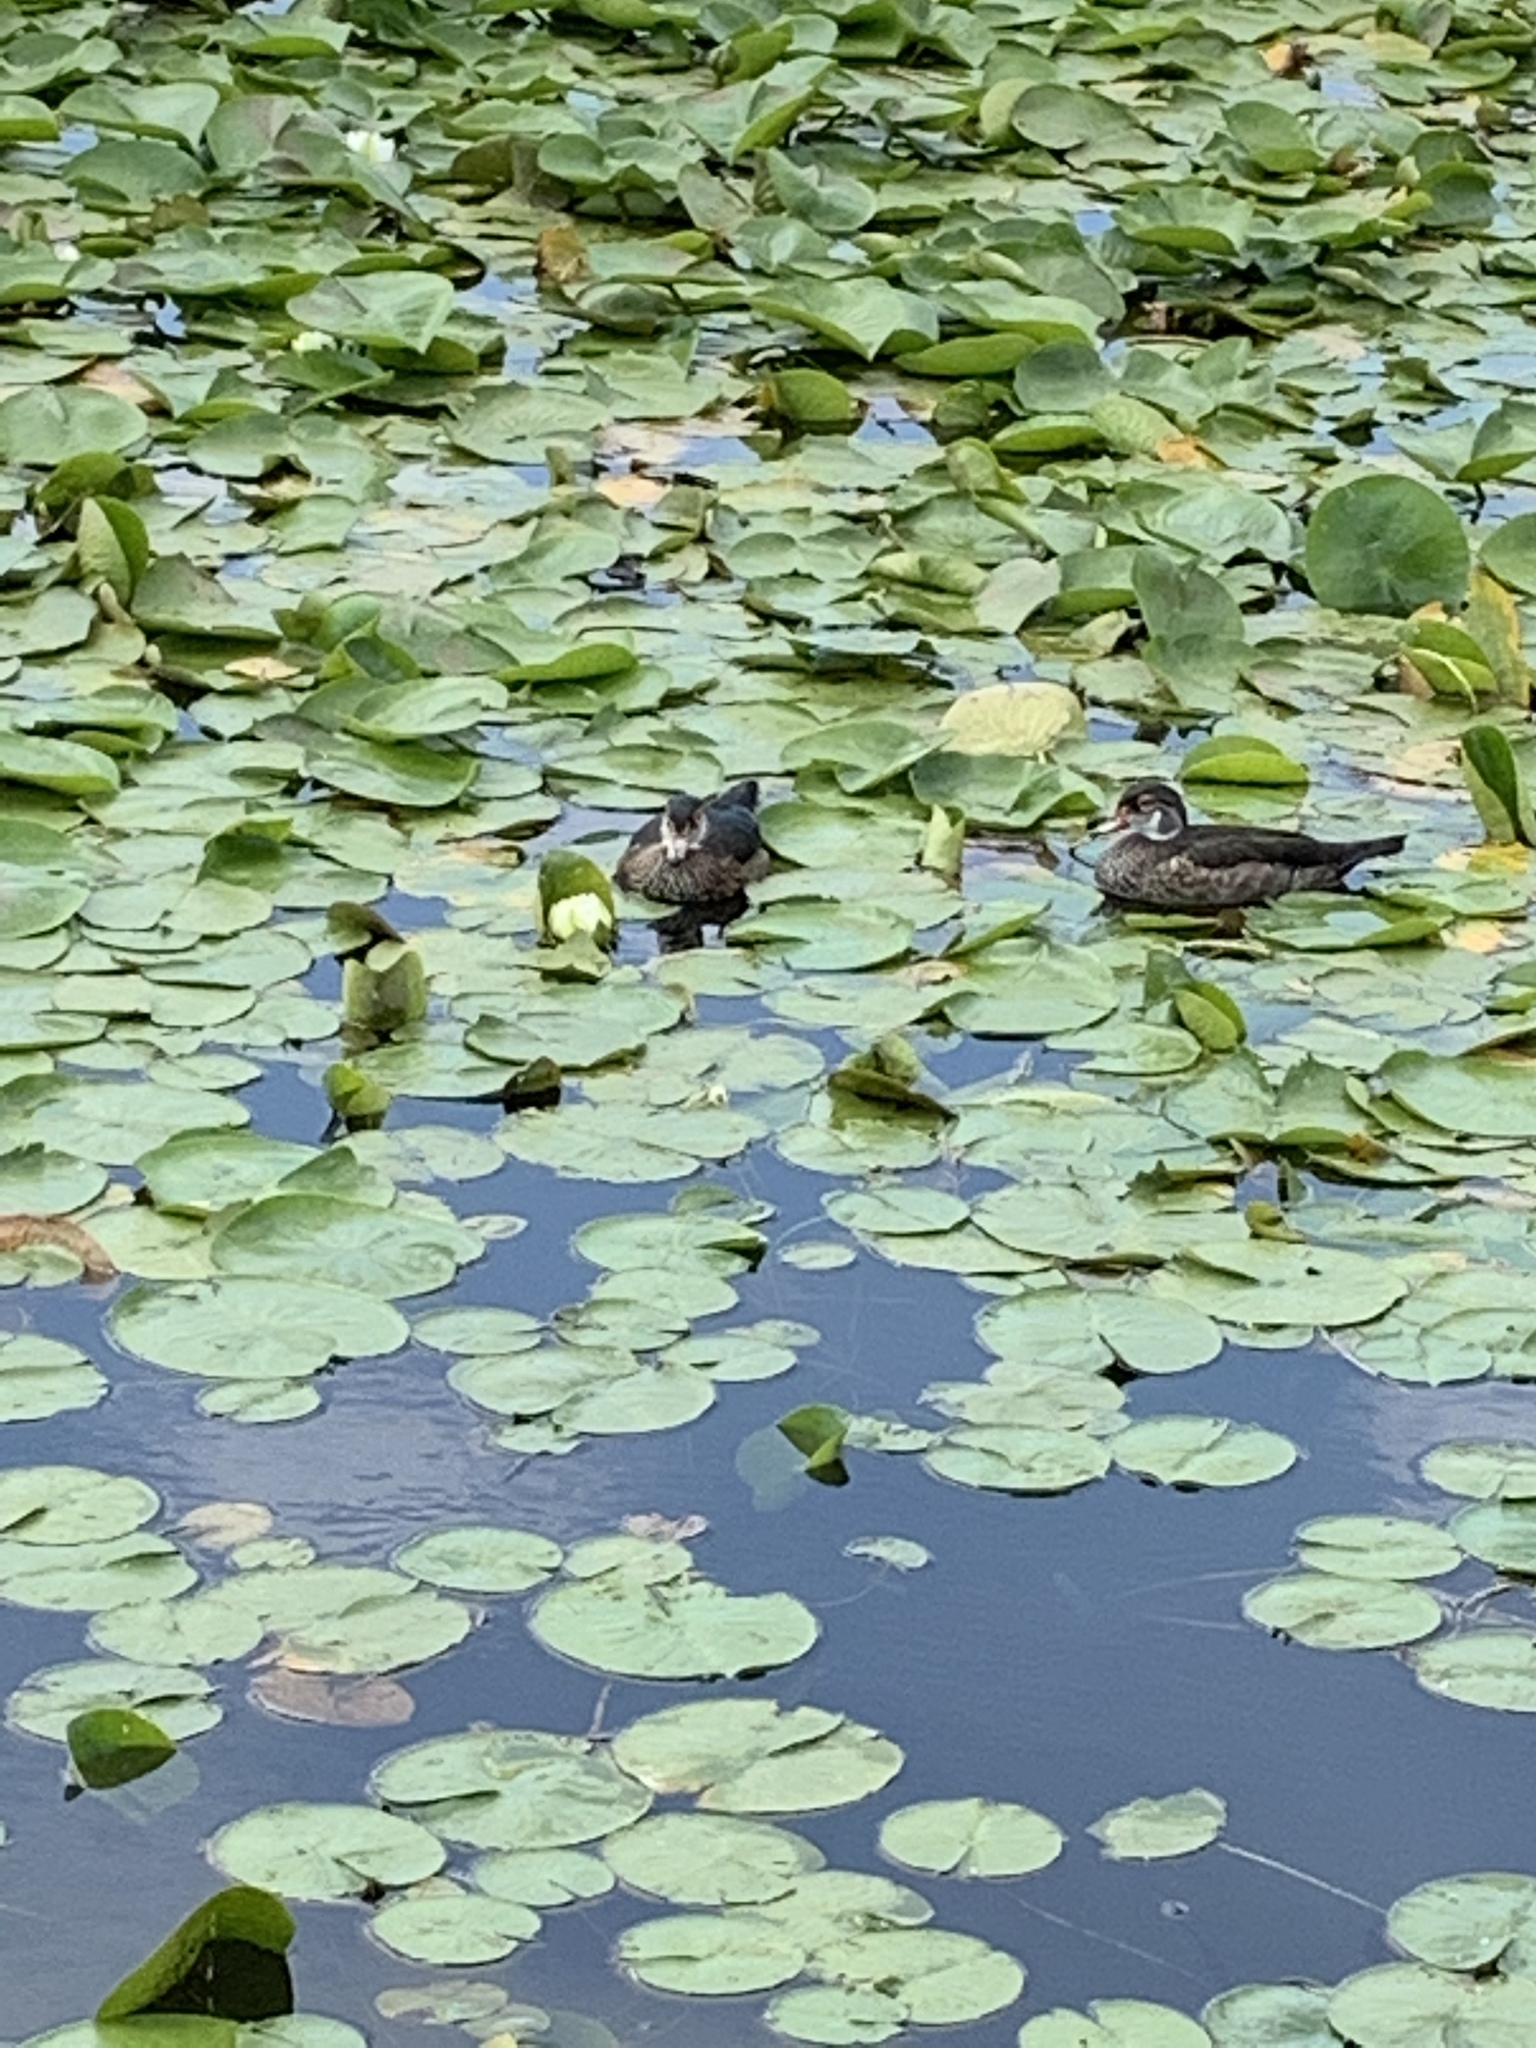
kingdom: Animalia
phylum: Chordata
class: Aves
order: Anseriformes
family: Anatidae
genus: Aix
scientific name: Aix sponsa
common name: Wood duck
